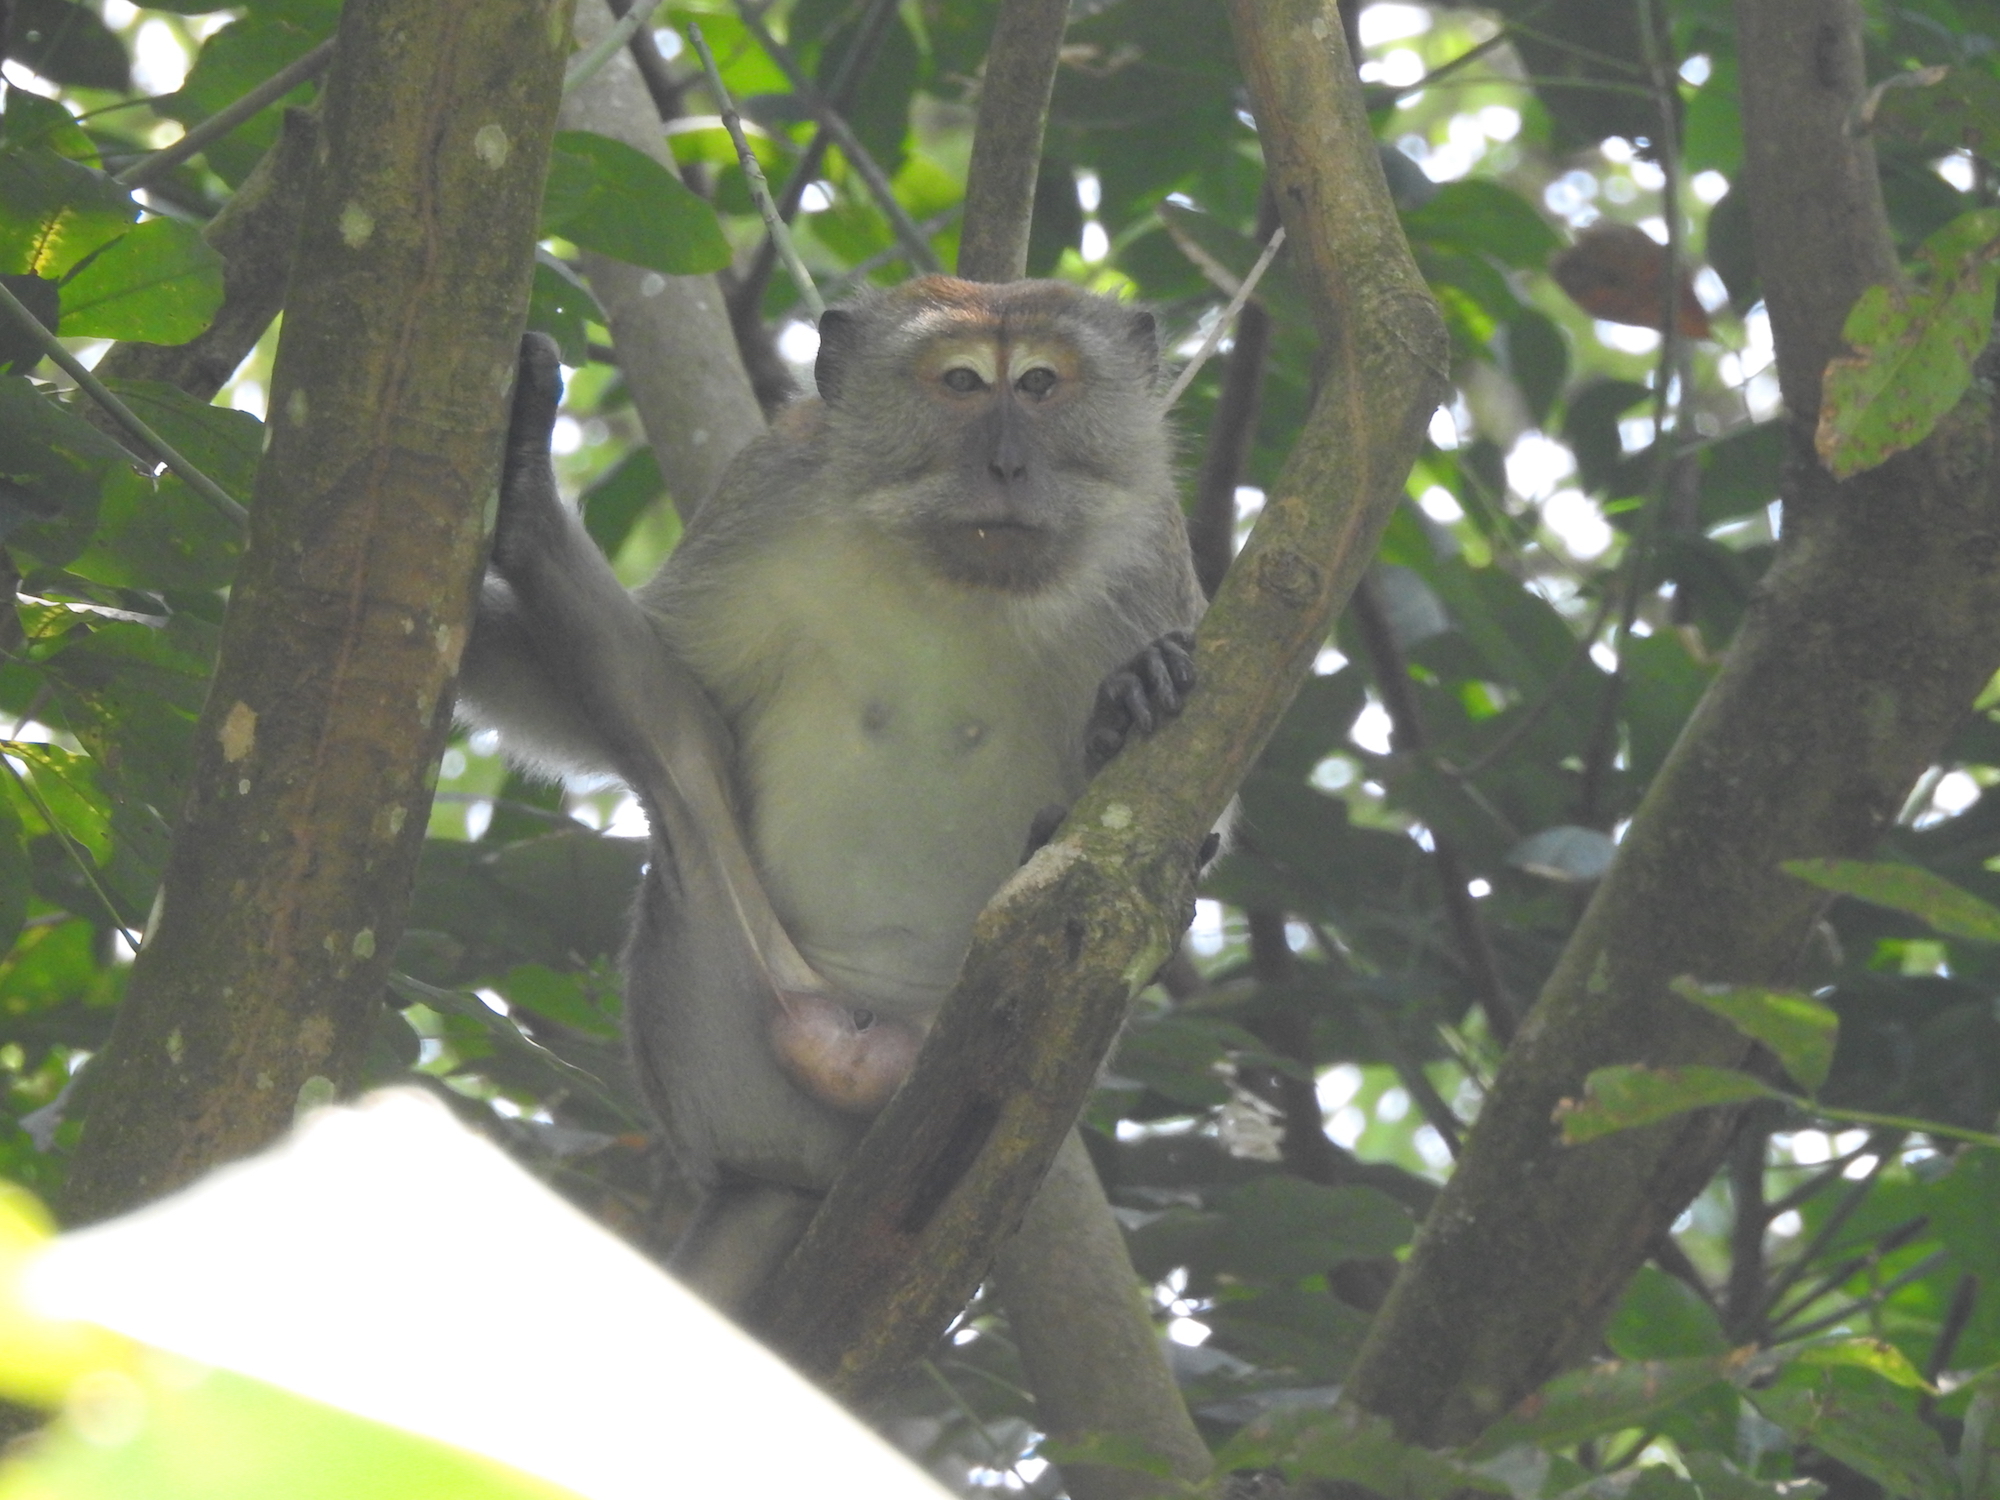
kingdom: Animalia
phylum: Chordata
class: Mammalia
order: Primates
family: Cercopithecidae
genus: Macaca
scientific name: Macaca fascicularis
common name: Crab-eating macaque
